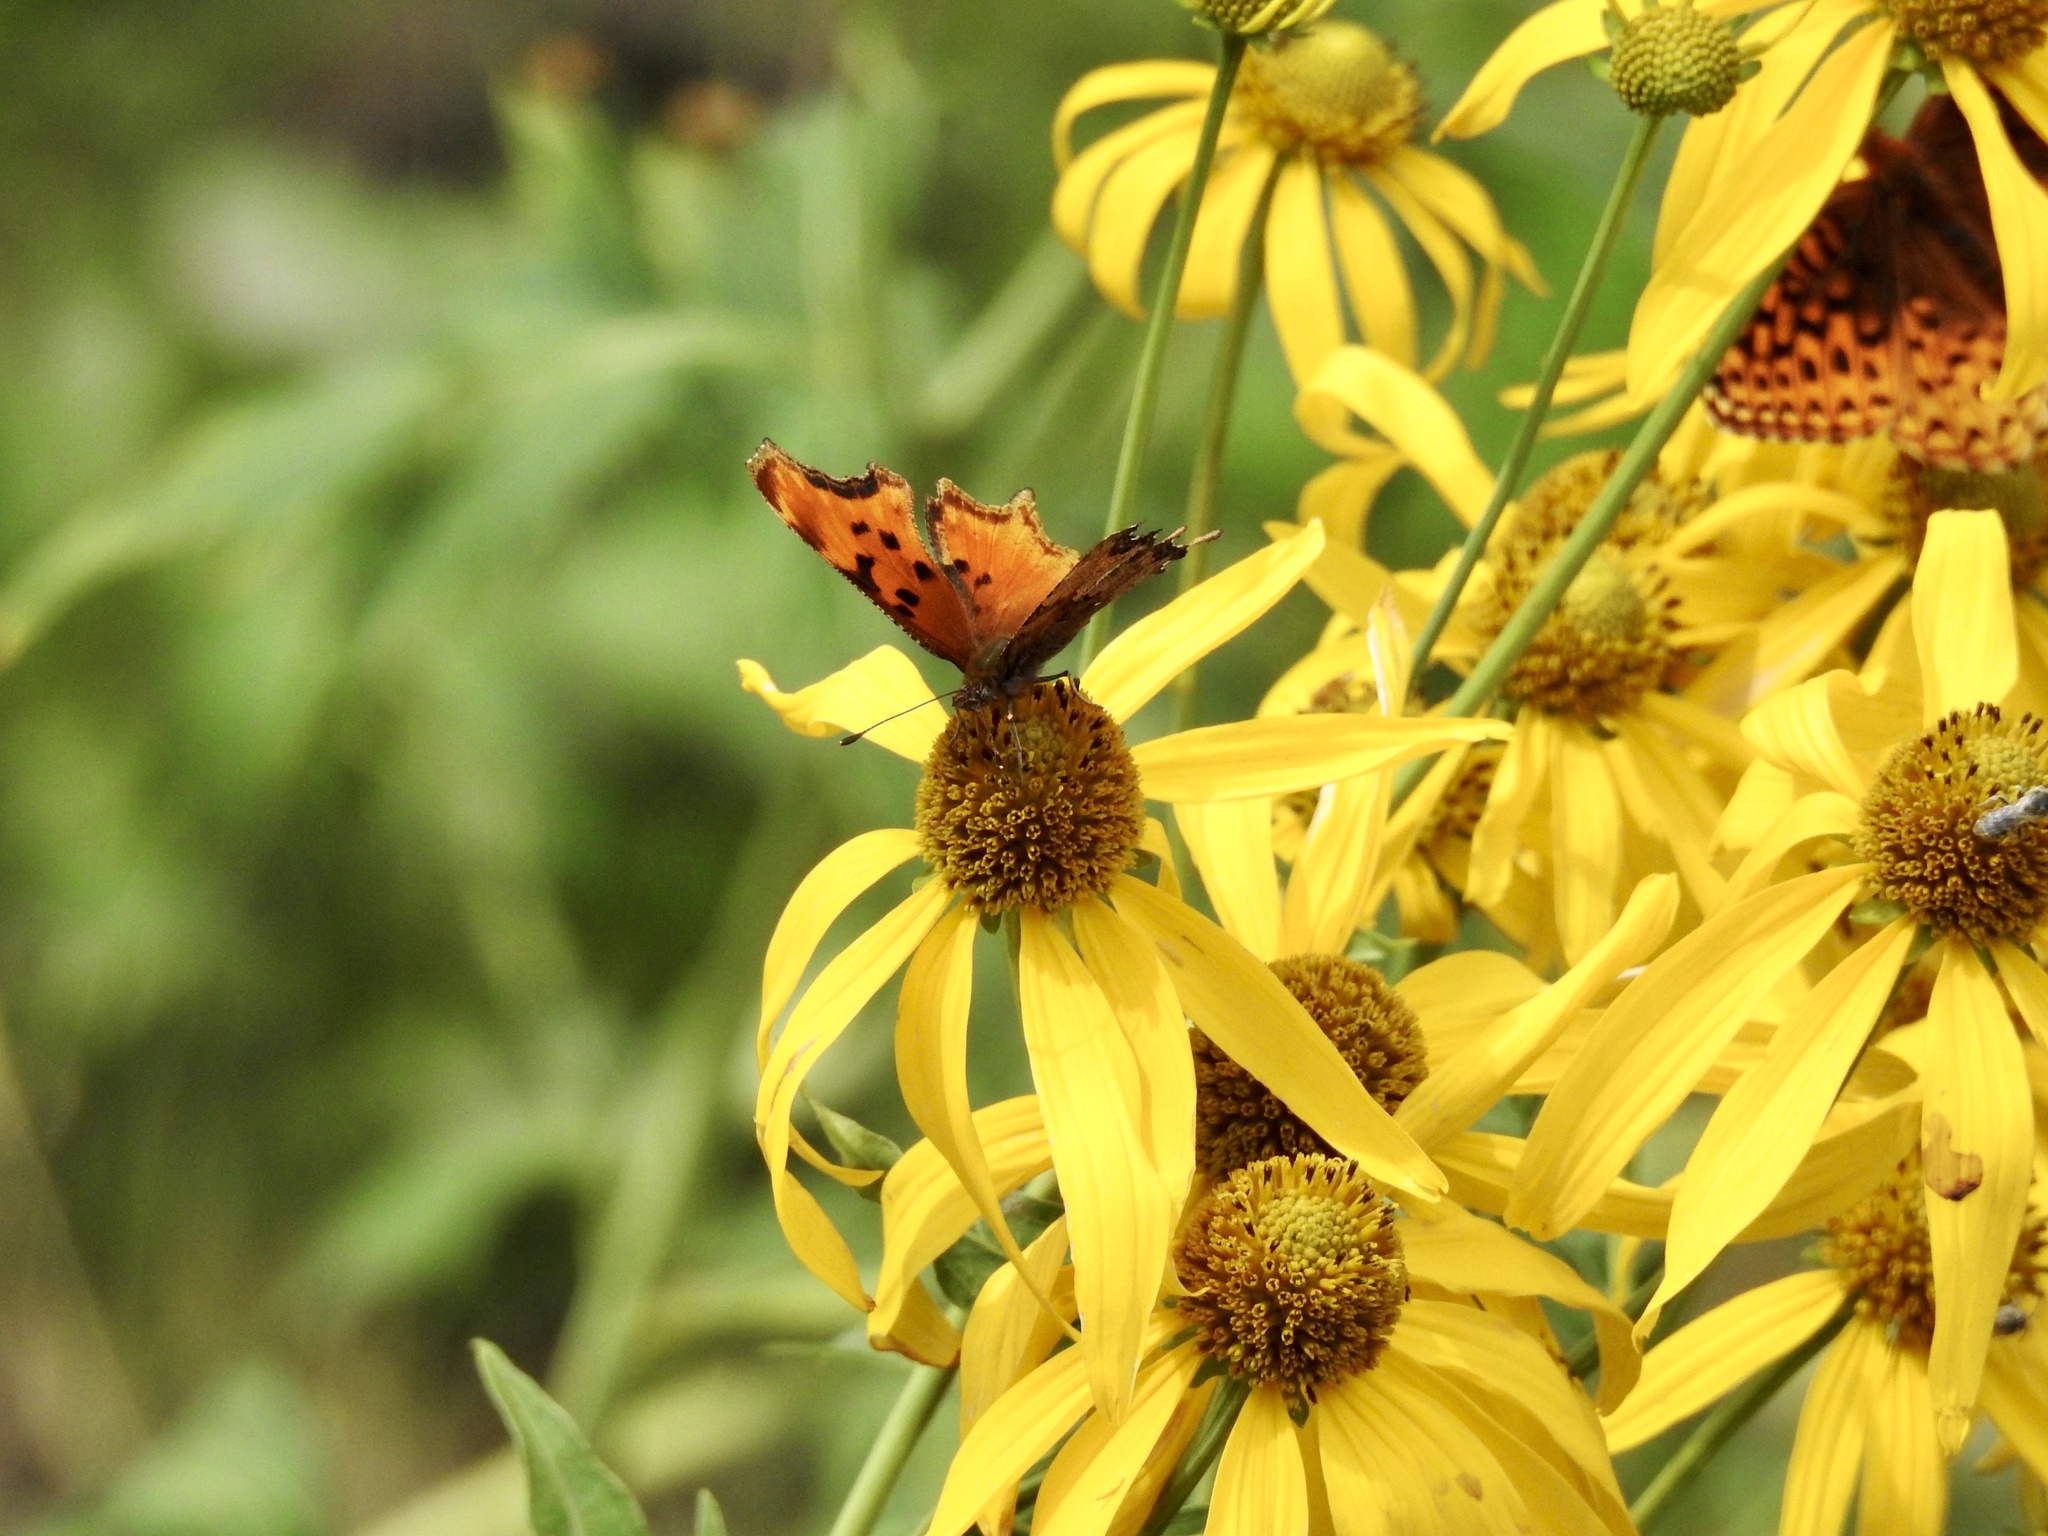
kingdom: Animalia
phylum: Arthropoda
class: Insecta
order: Lepidoptera
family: Nymphalidae
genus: Polygonia
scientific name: Polygonia gracilis
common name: Hoary comma
